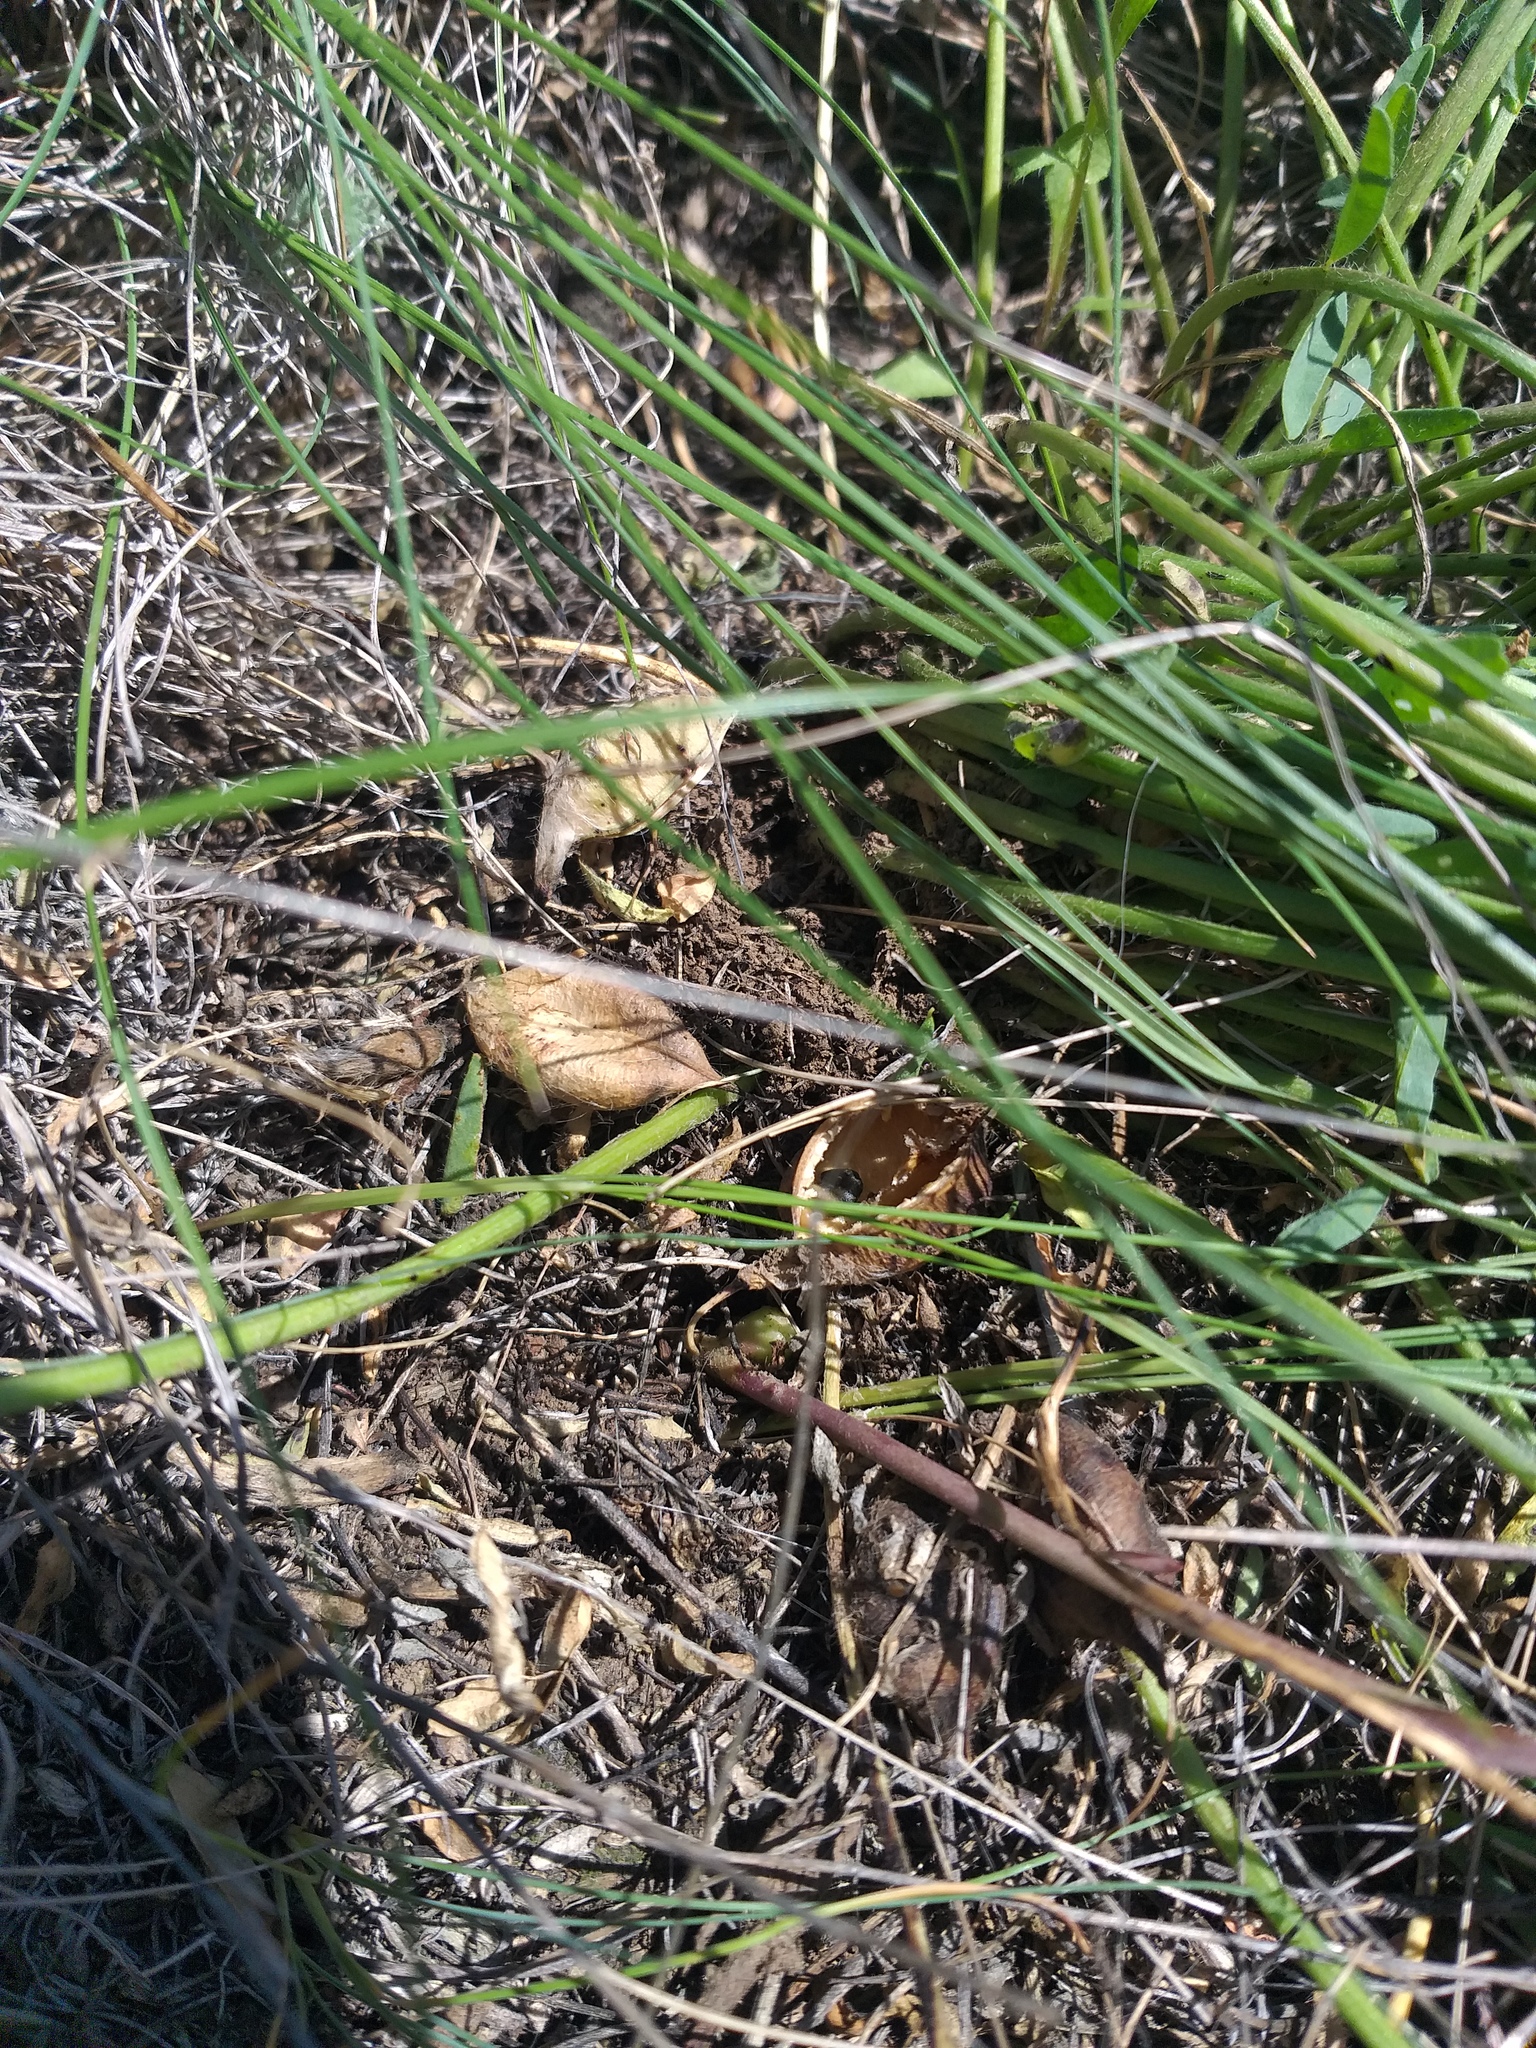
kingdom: Plantae
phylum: Tracheophyta
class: Magnoliopsida
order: Fabales
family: Fabaceae
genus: Astragalus
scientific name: Astragalus buchtormensis
